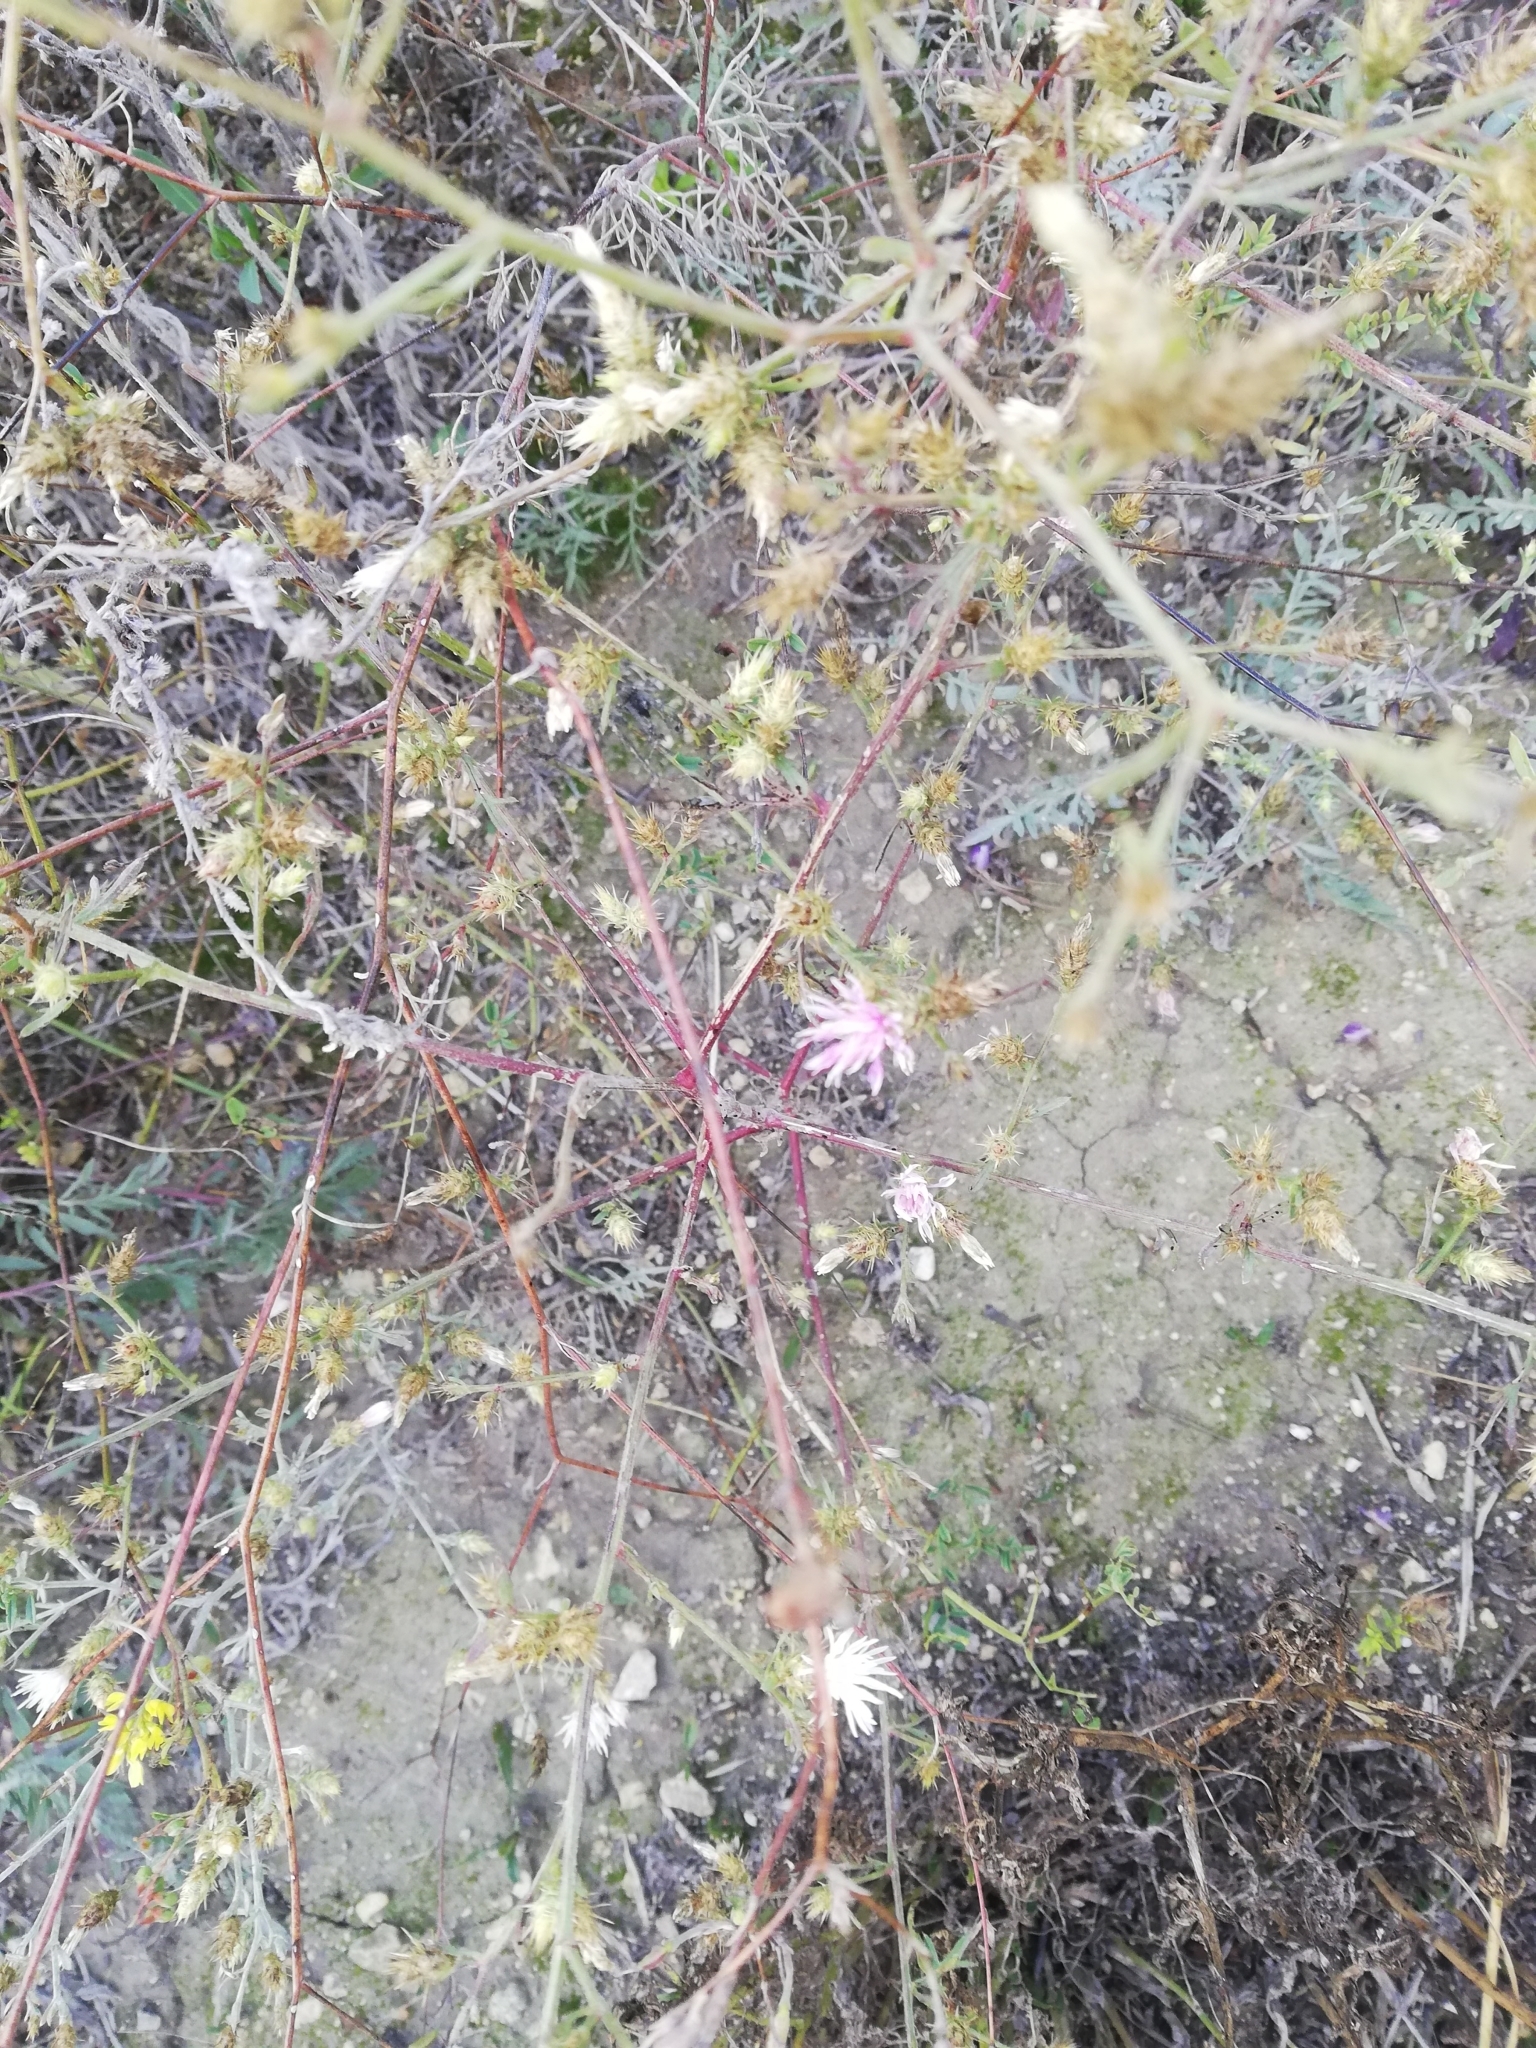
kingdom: Plantae
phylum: Tracheophyta
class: Magnoliopsida
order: Asterales
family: Asteraceae
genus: Centaurea
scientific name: Centaurea diffusa
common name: Diffuse knapweed
